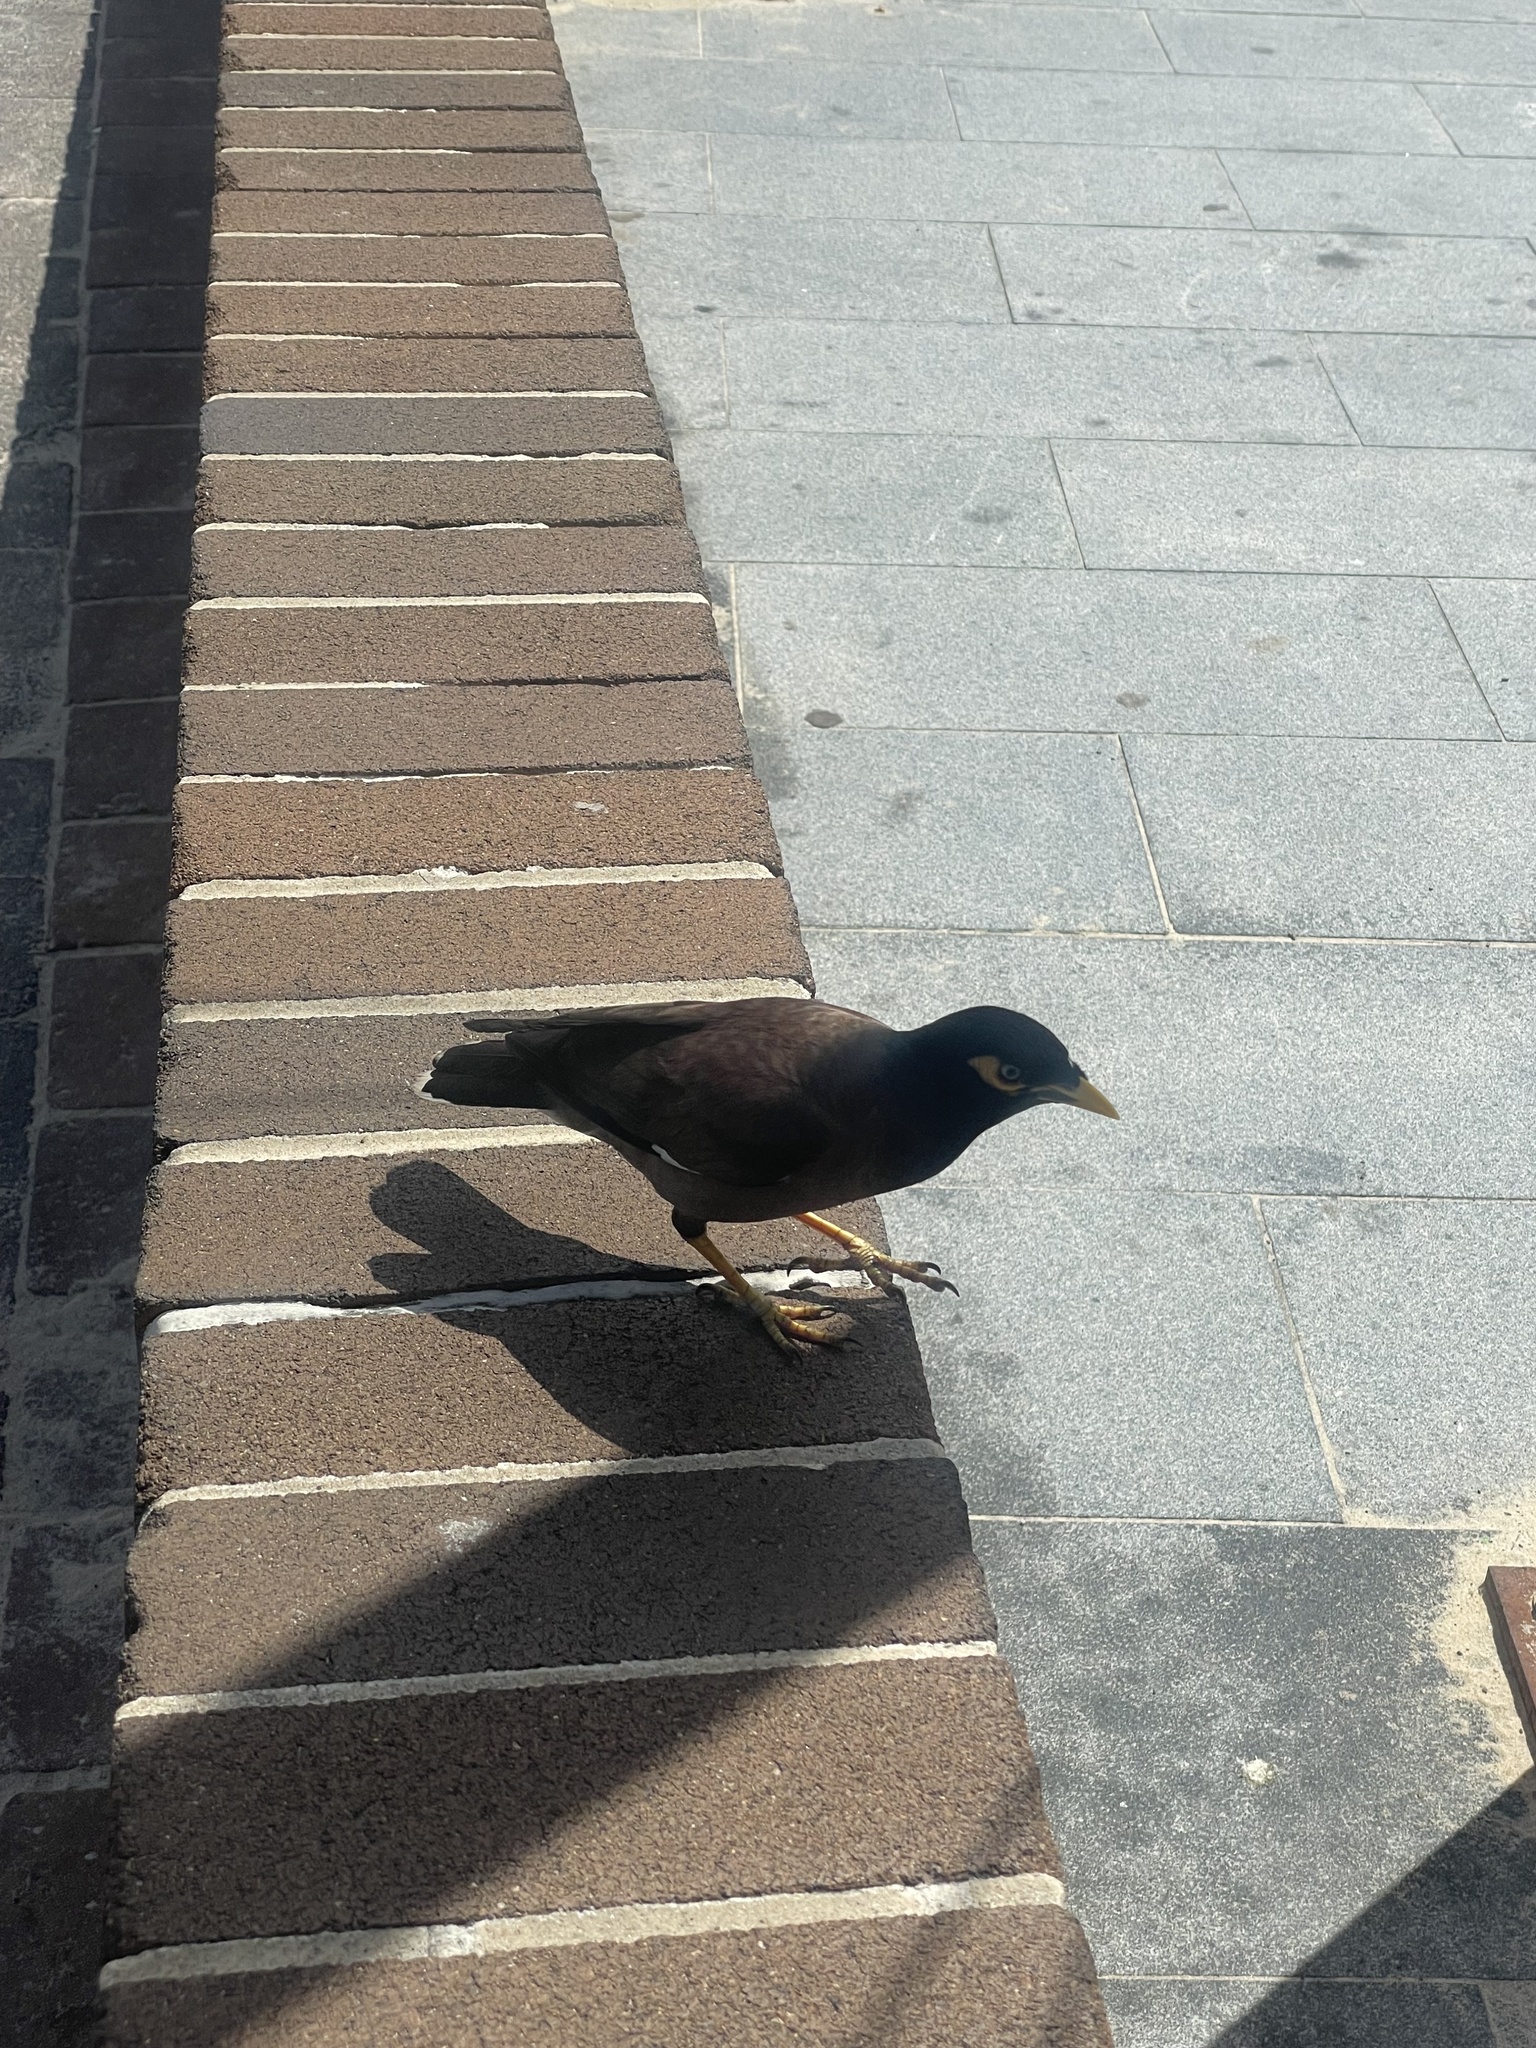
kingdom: Animalia
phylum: Chordata
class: Aves
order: Passeriformes
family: Sturnidae
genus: Acridotheres
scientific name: Acridotheres tristis
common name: Common myna
